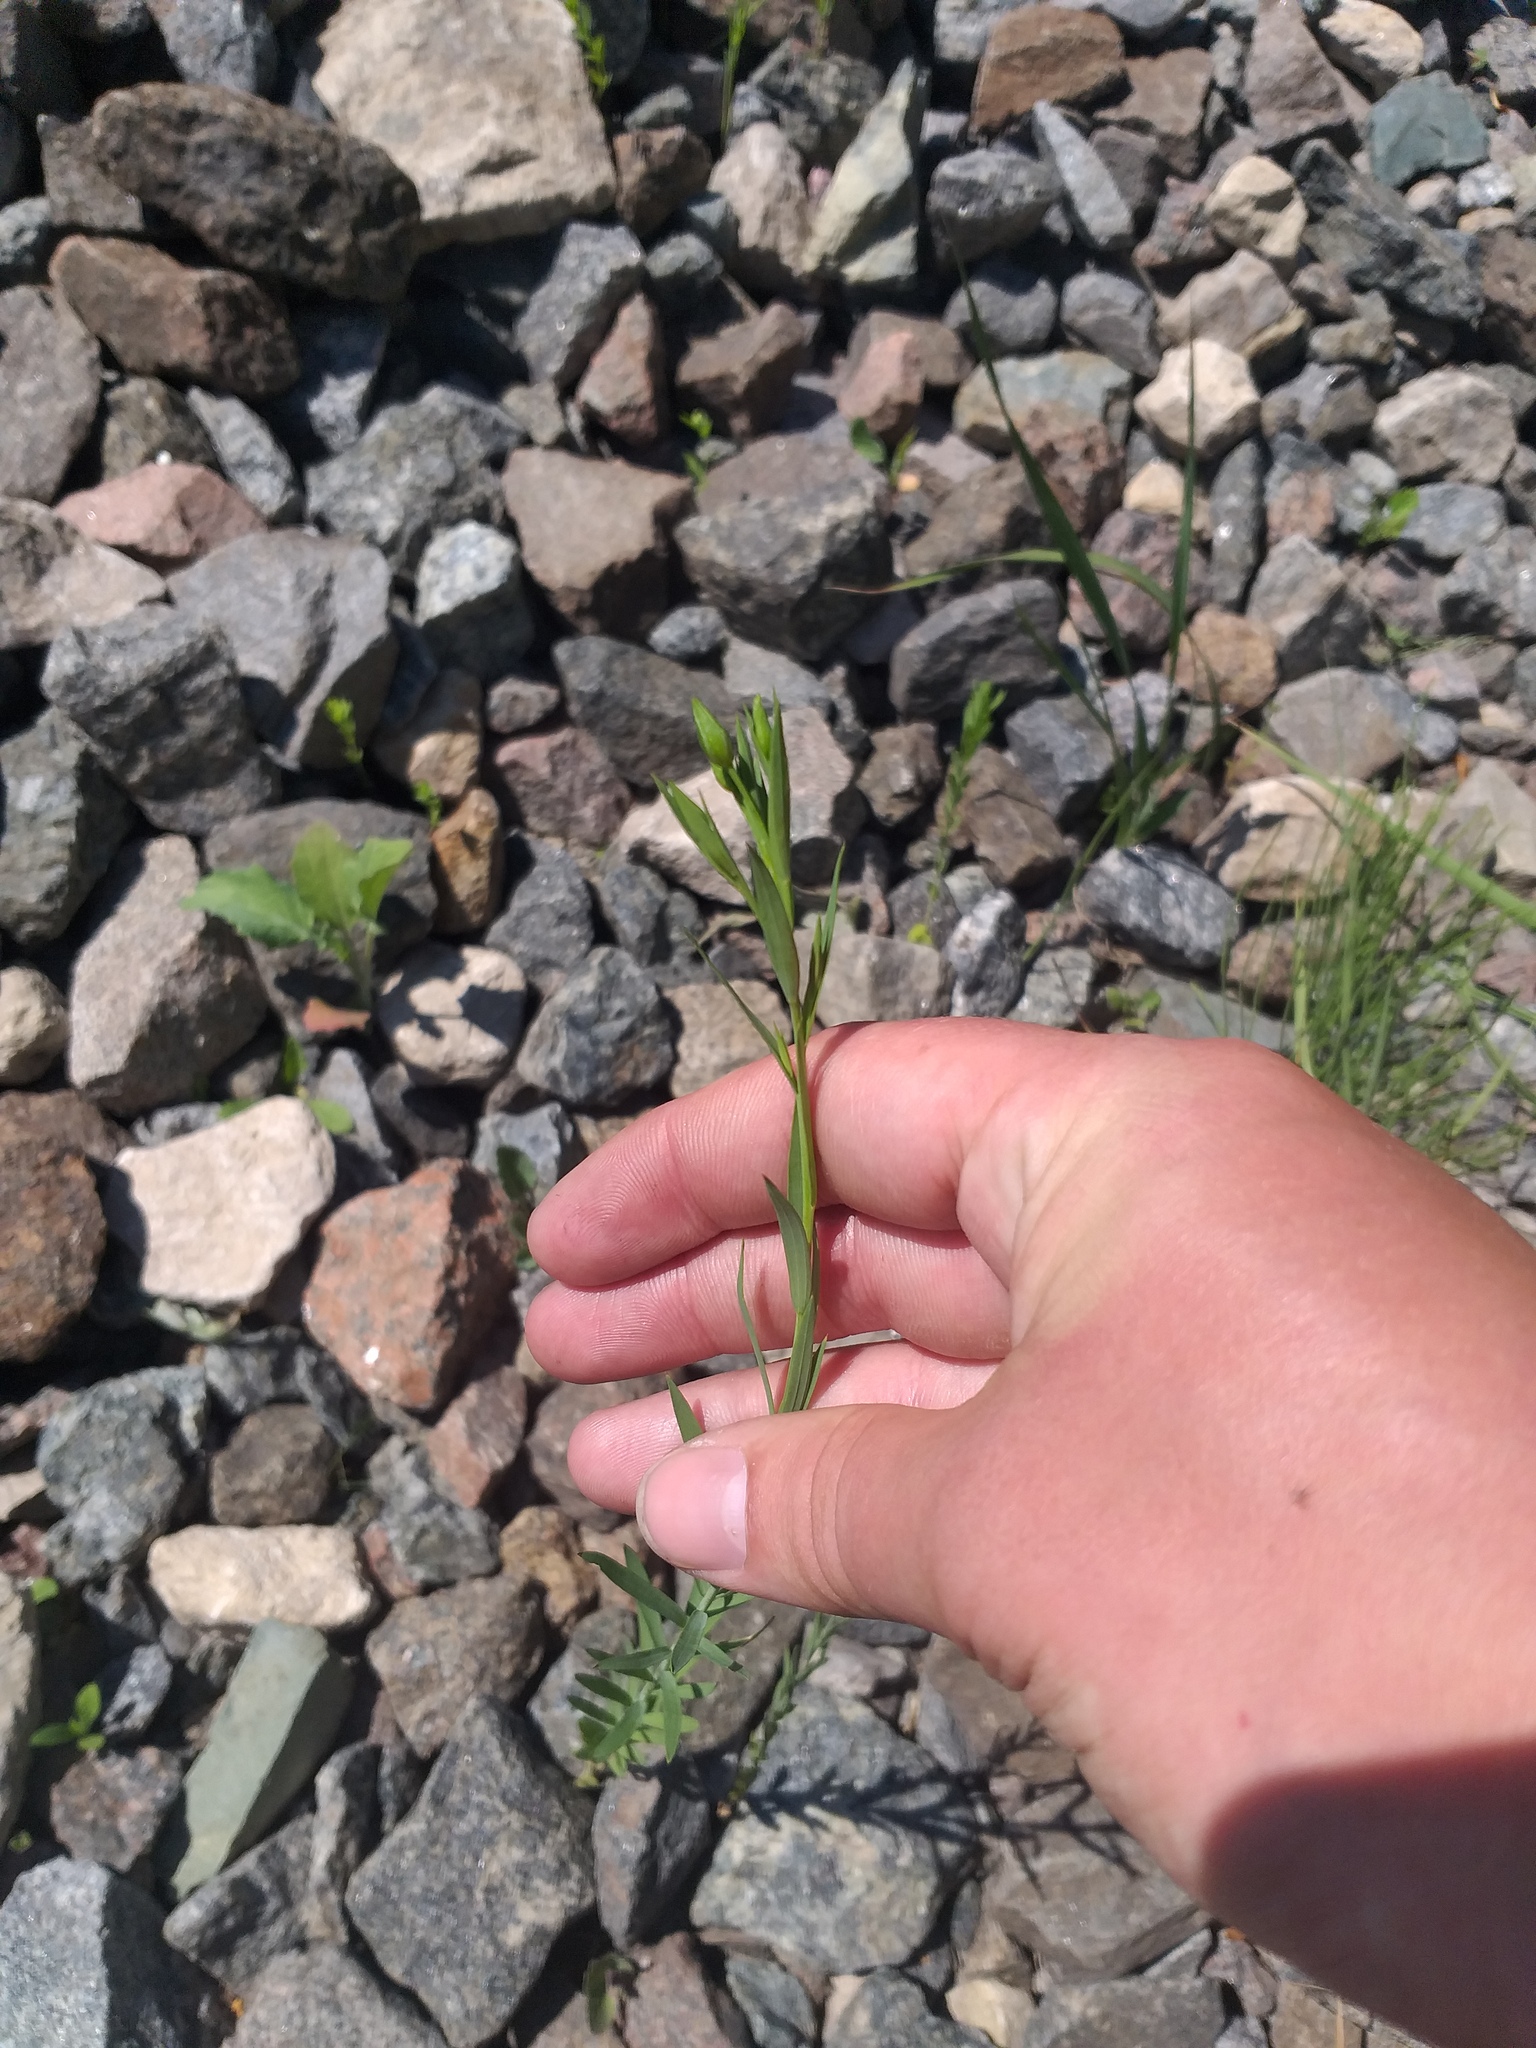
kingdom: Plantae
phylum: Tracheophyta
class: Magnoliopsida
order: Malpighiales
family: Linaceae
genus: Linum
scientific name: Linum usitatissimum
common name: Flax
